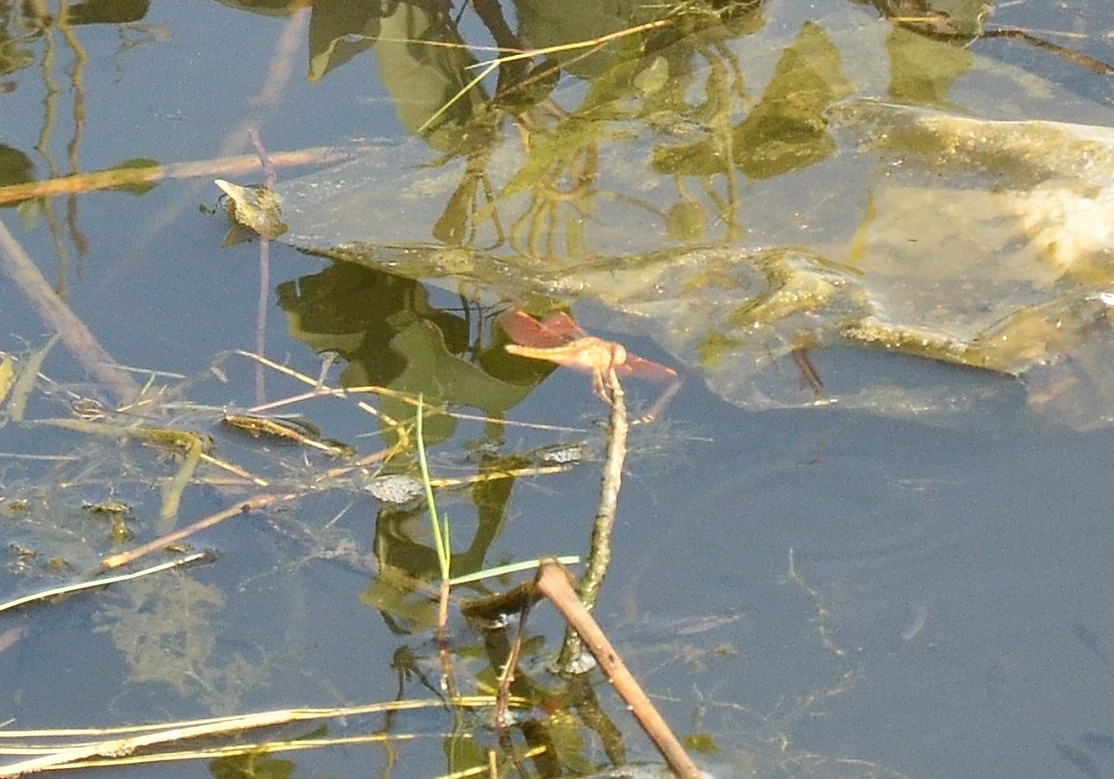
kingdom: Animalia
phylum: Arthropoda
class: Insecta
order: Odonata
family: Libellulidae
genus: Brachythemis
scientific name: Brachythemis contaminata
